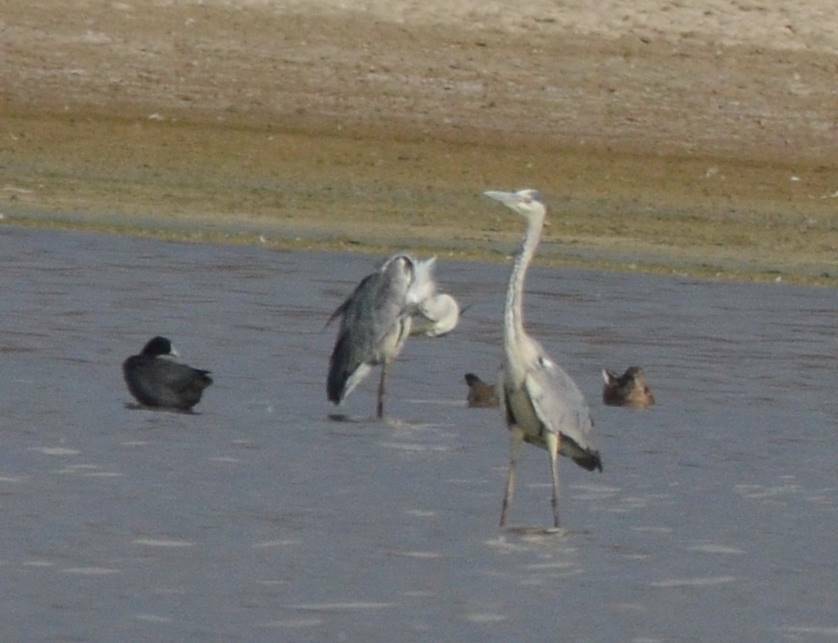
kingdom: Animalia
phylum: Chordata
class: Aves
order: Pelecaniformes
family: Ardeidae
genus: Ardea
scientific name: Ardea cinerea
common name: Grey heron
